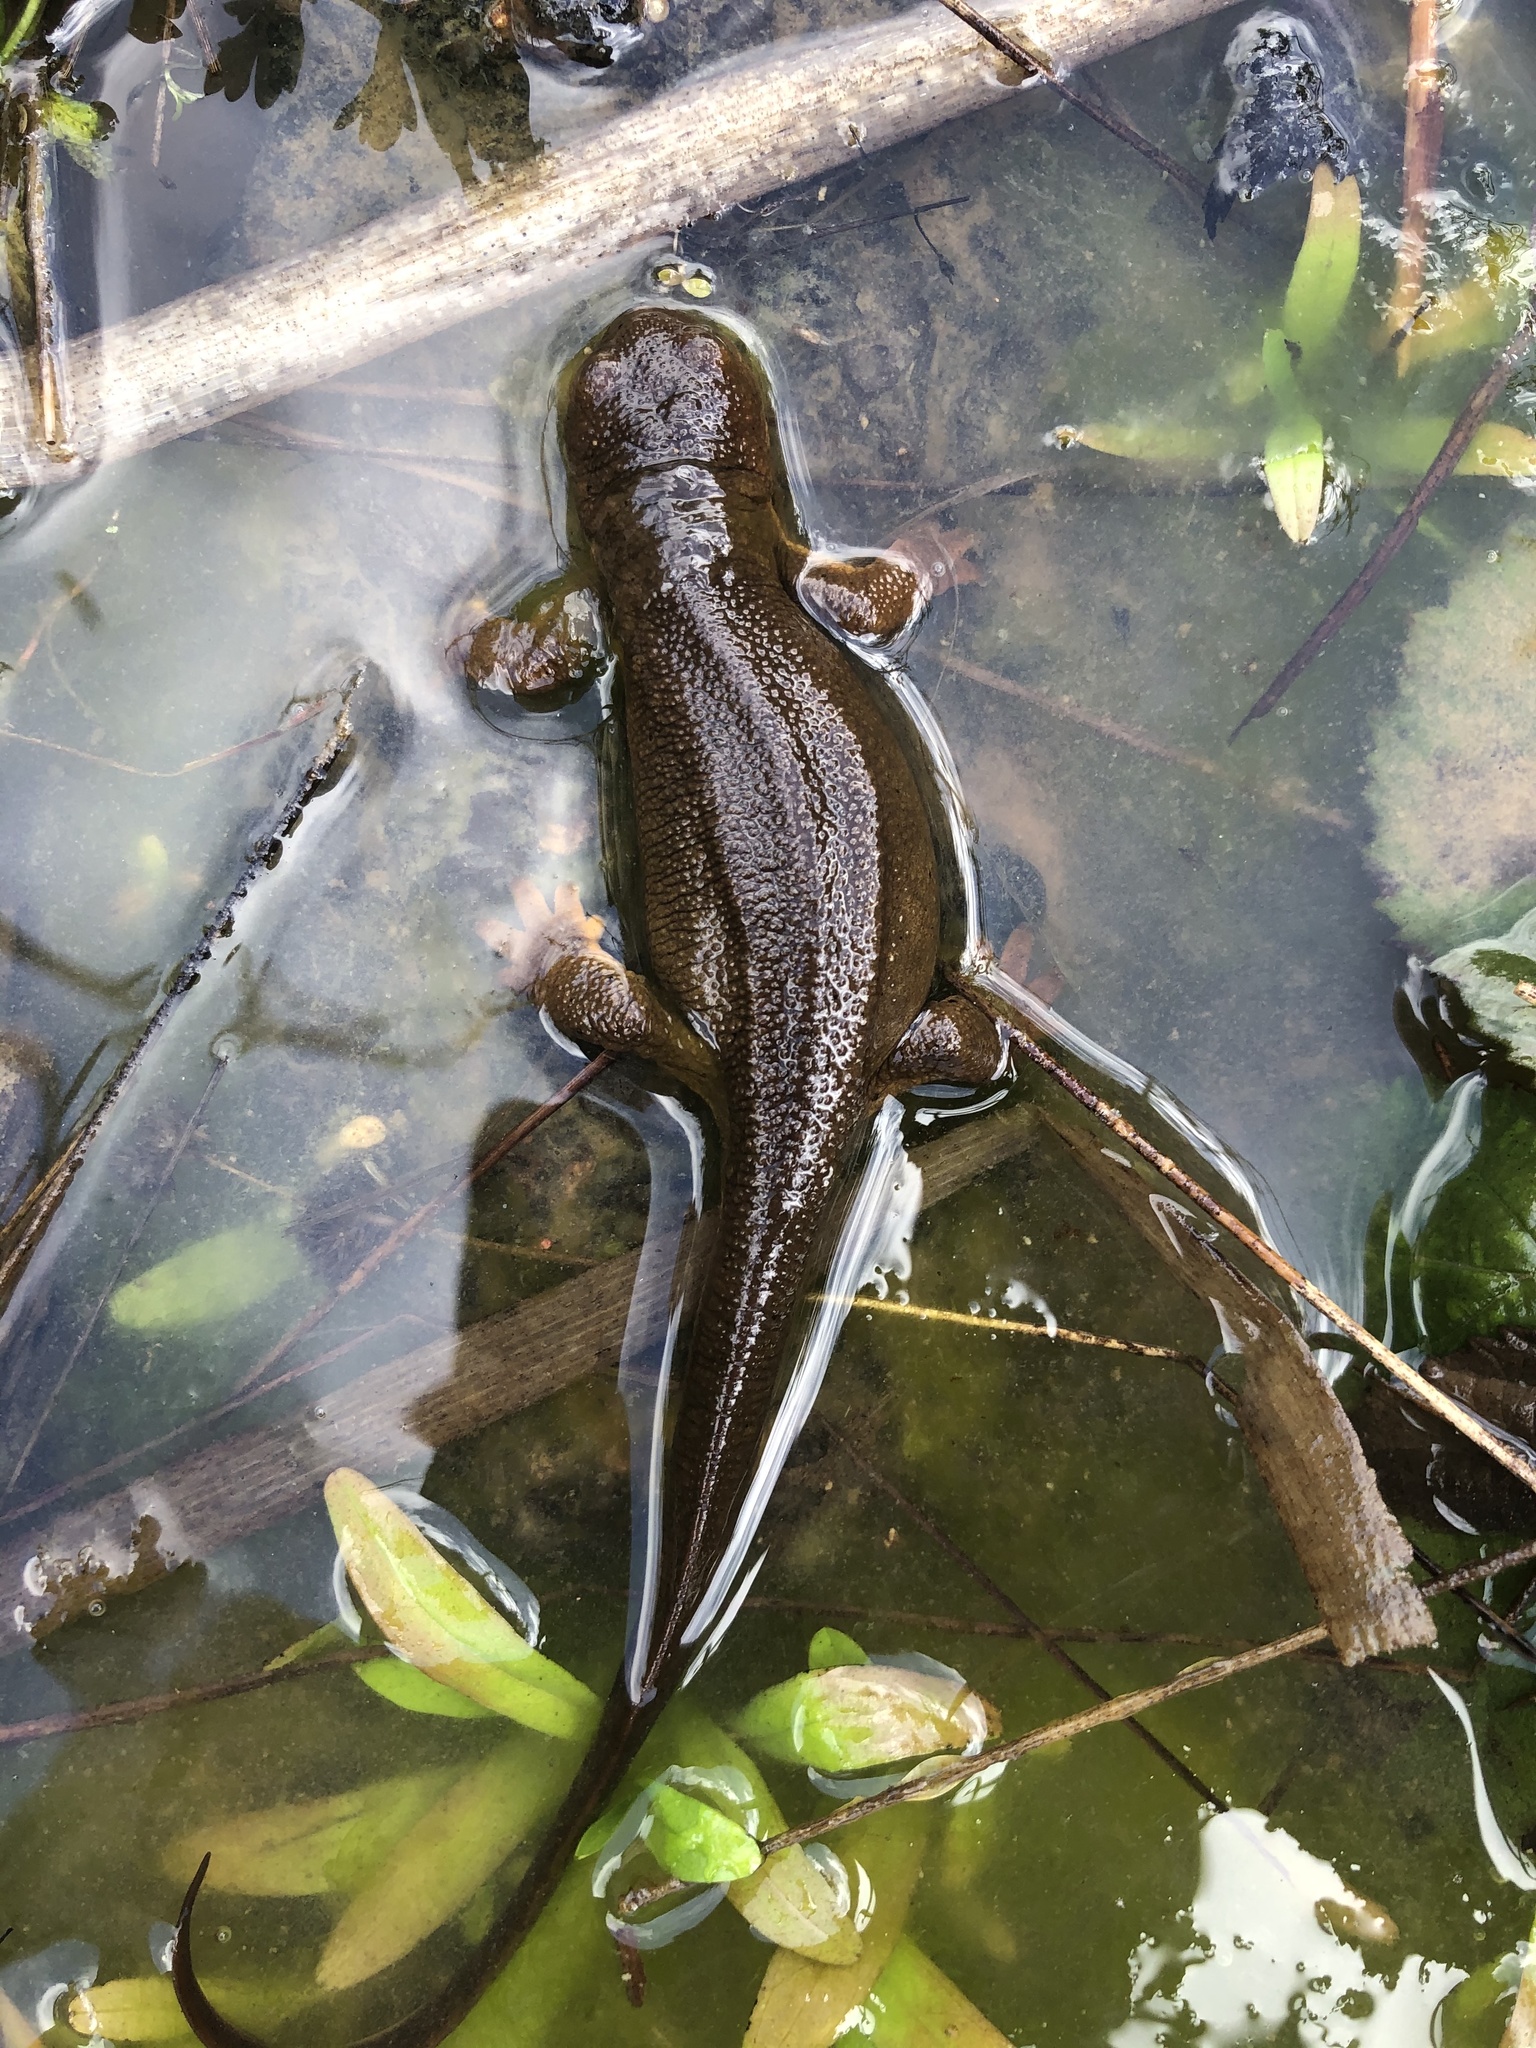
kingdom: Animalia
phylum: Chordata
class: Amphibia
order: Caudata
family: Salamandridae
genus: Taricha
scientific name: Taricha granulosa
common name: Roughskin newt
